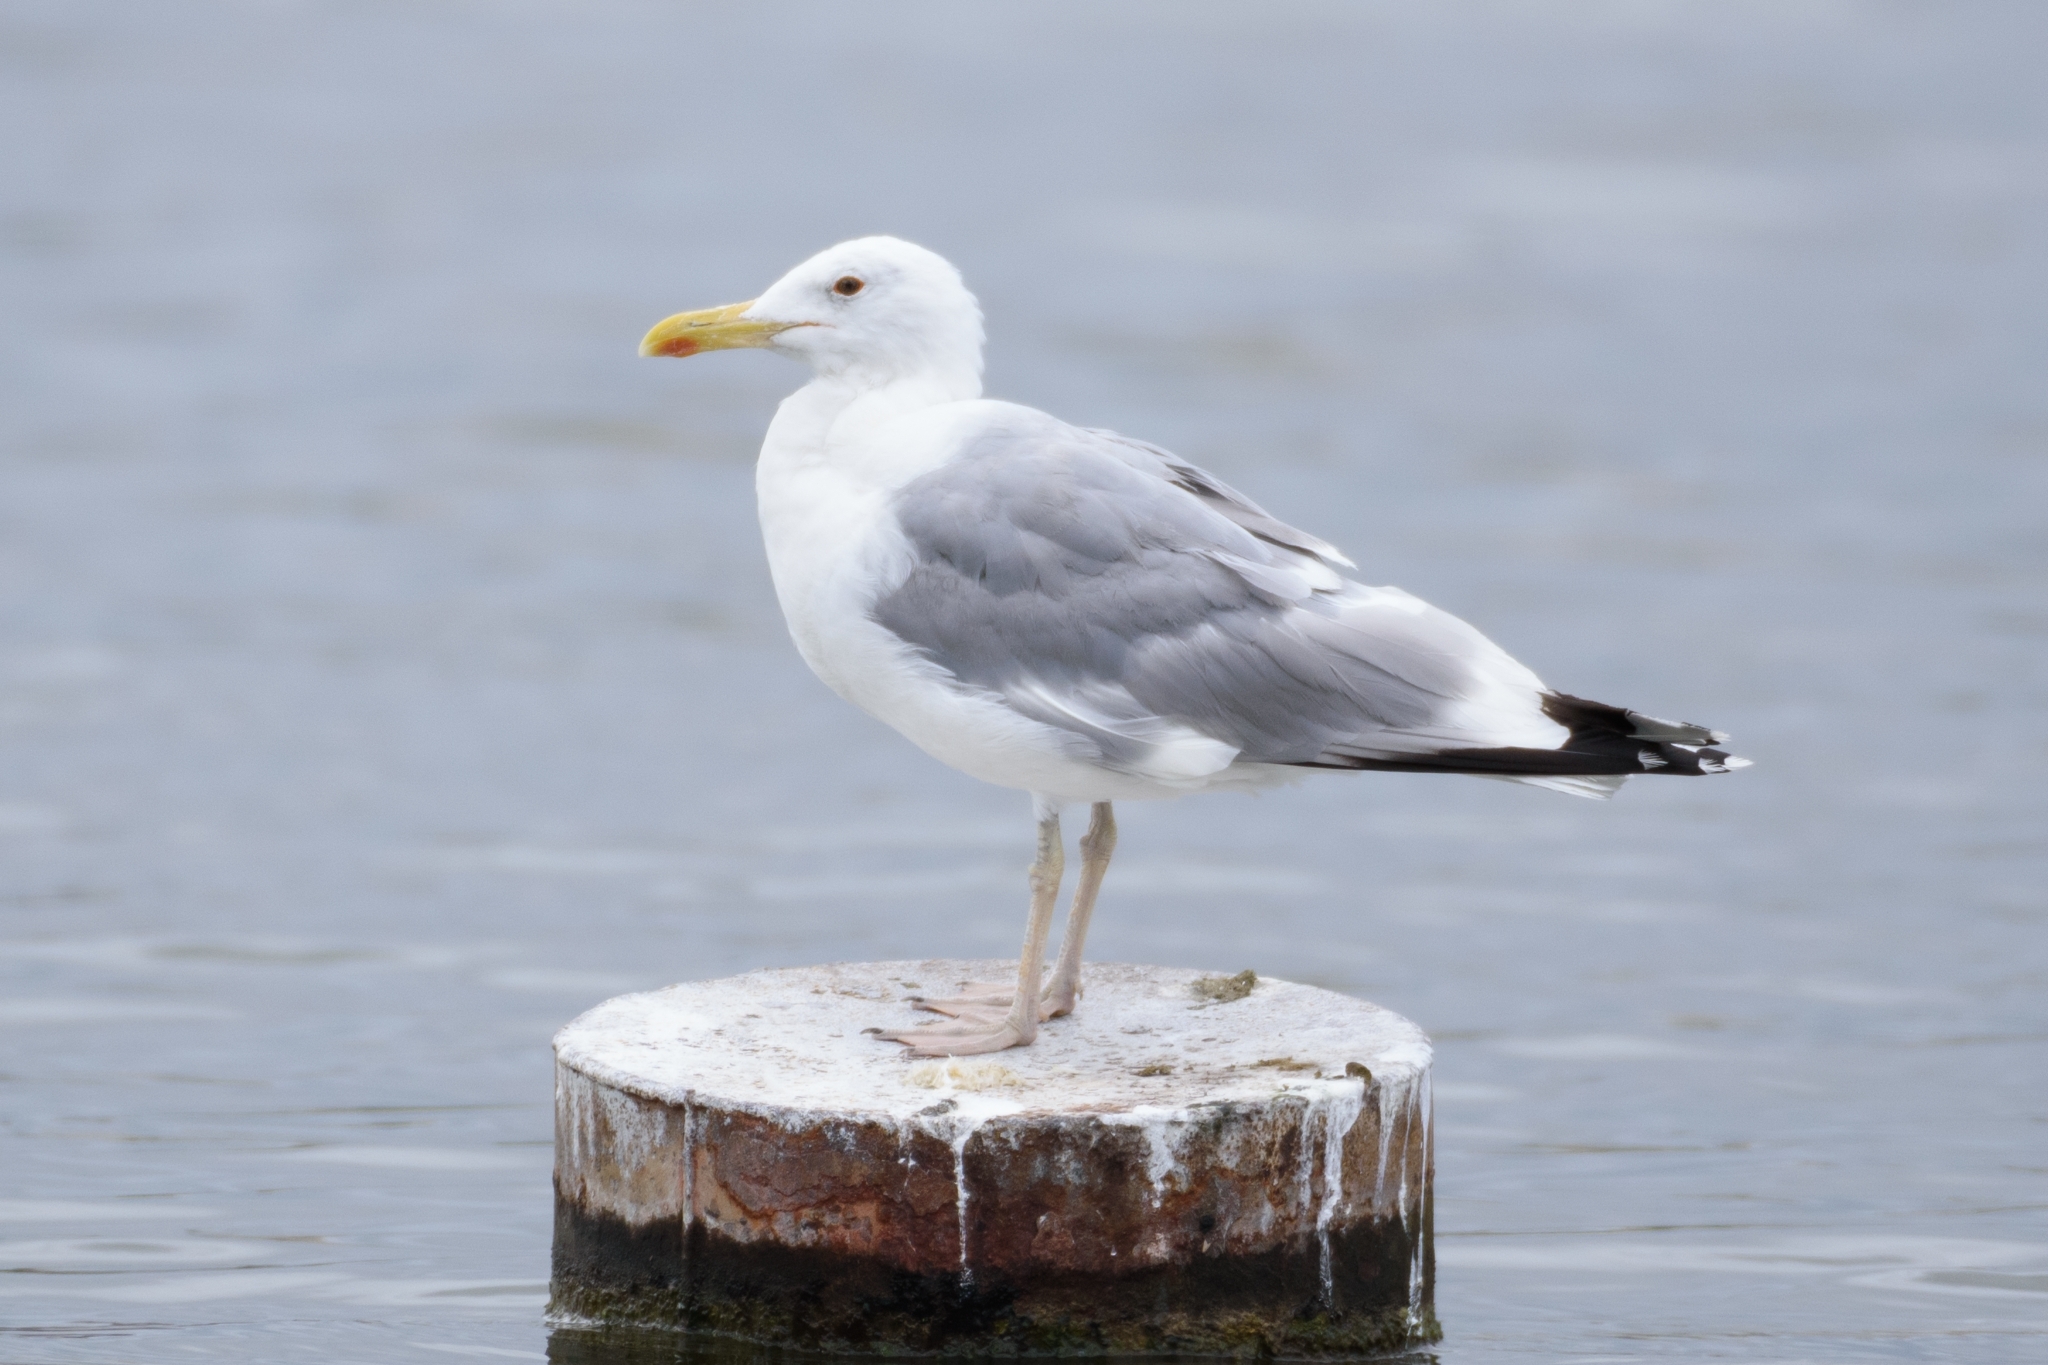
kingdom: Animalia
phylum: Chordata
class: Aves
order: Charadriiformes
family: Laridae
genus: Larus
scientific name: Larus cachinnans
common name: Caspian gull
